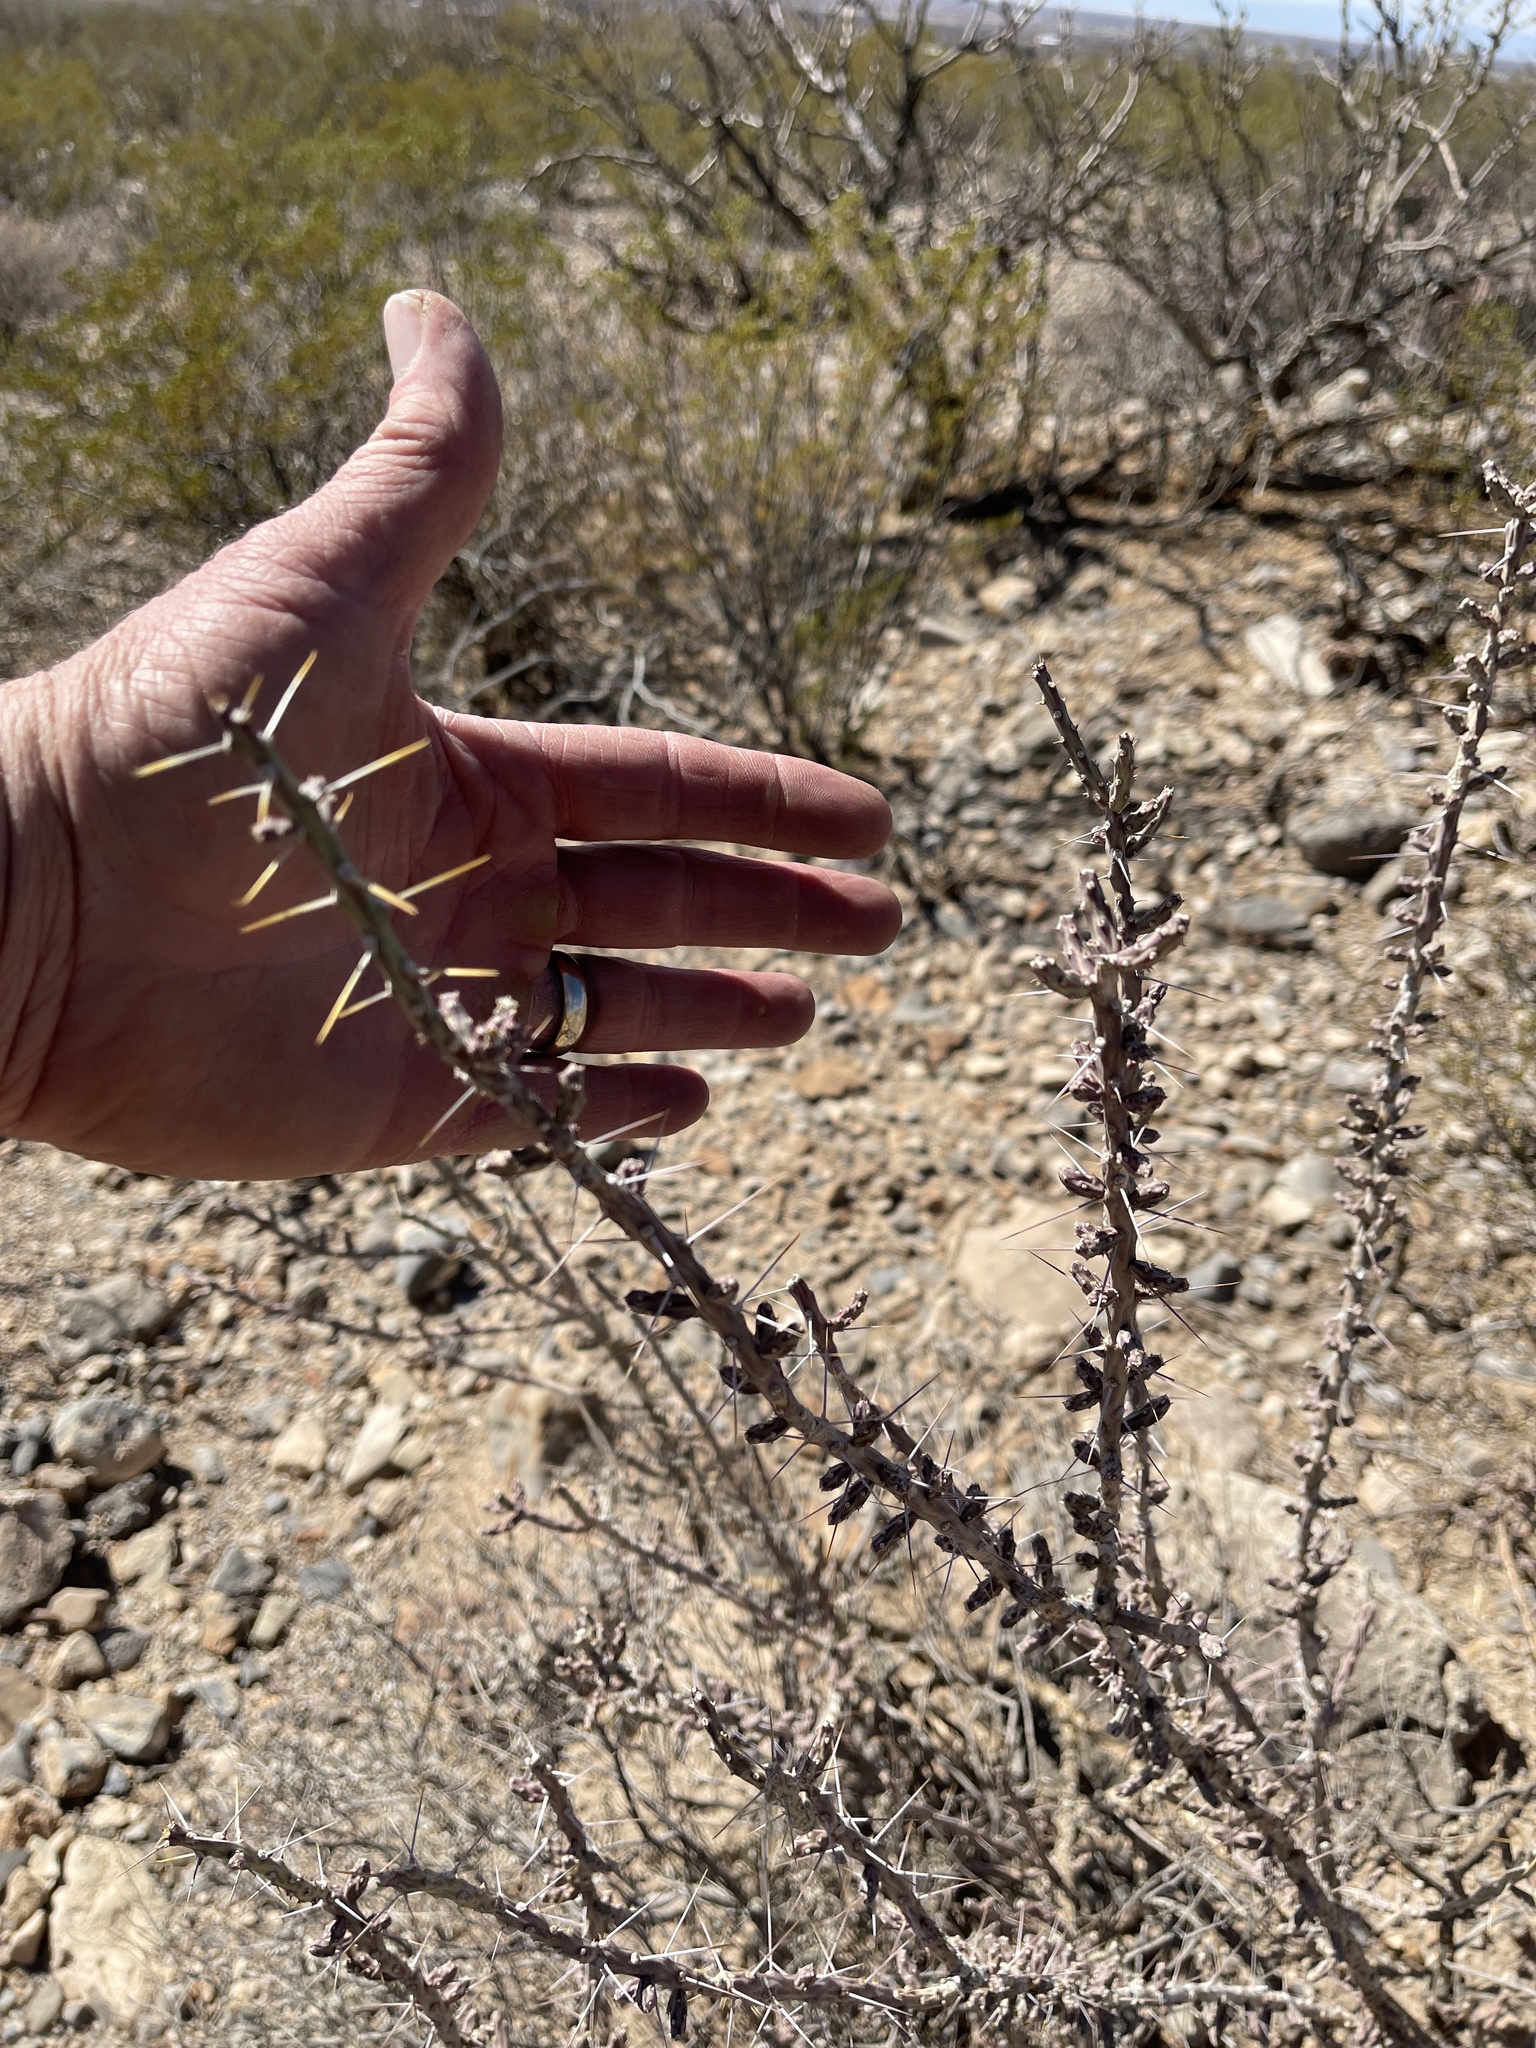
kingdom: Plantae
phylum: Tracheophyta
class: Magnoliopsida
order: Caryophyllales
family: Cactaceae
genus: Cylindropuntia
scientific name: Cylindropuntia leptocaulis
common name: Christmas cactus
